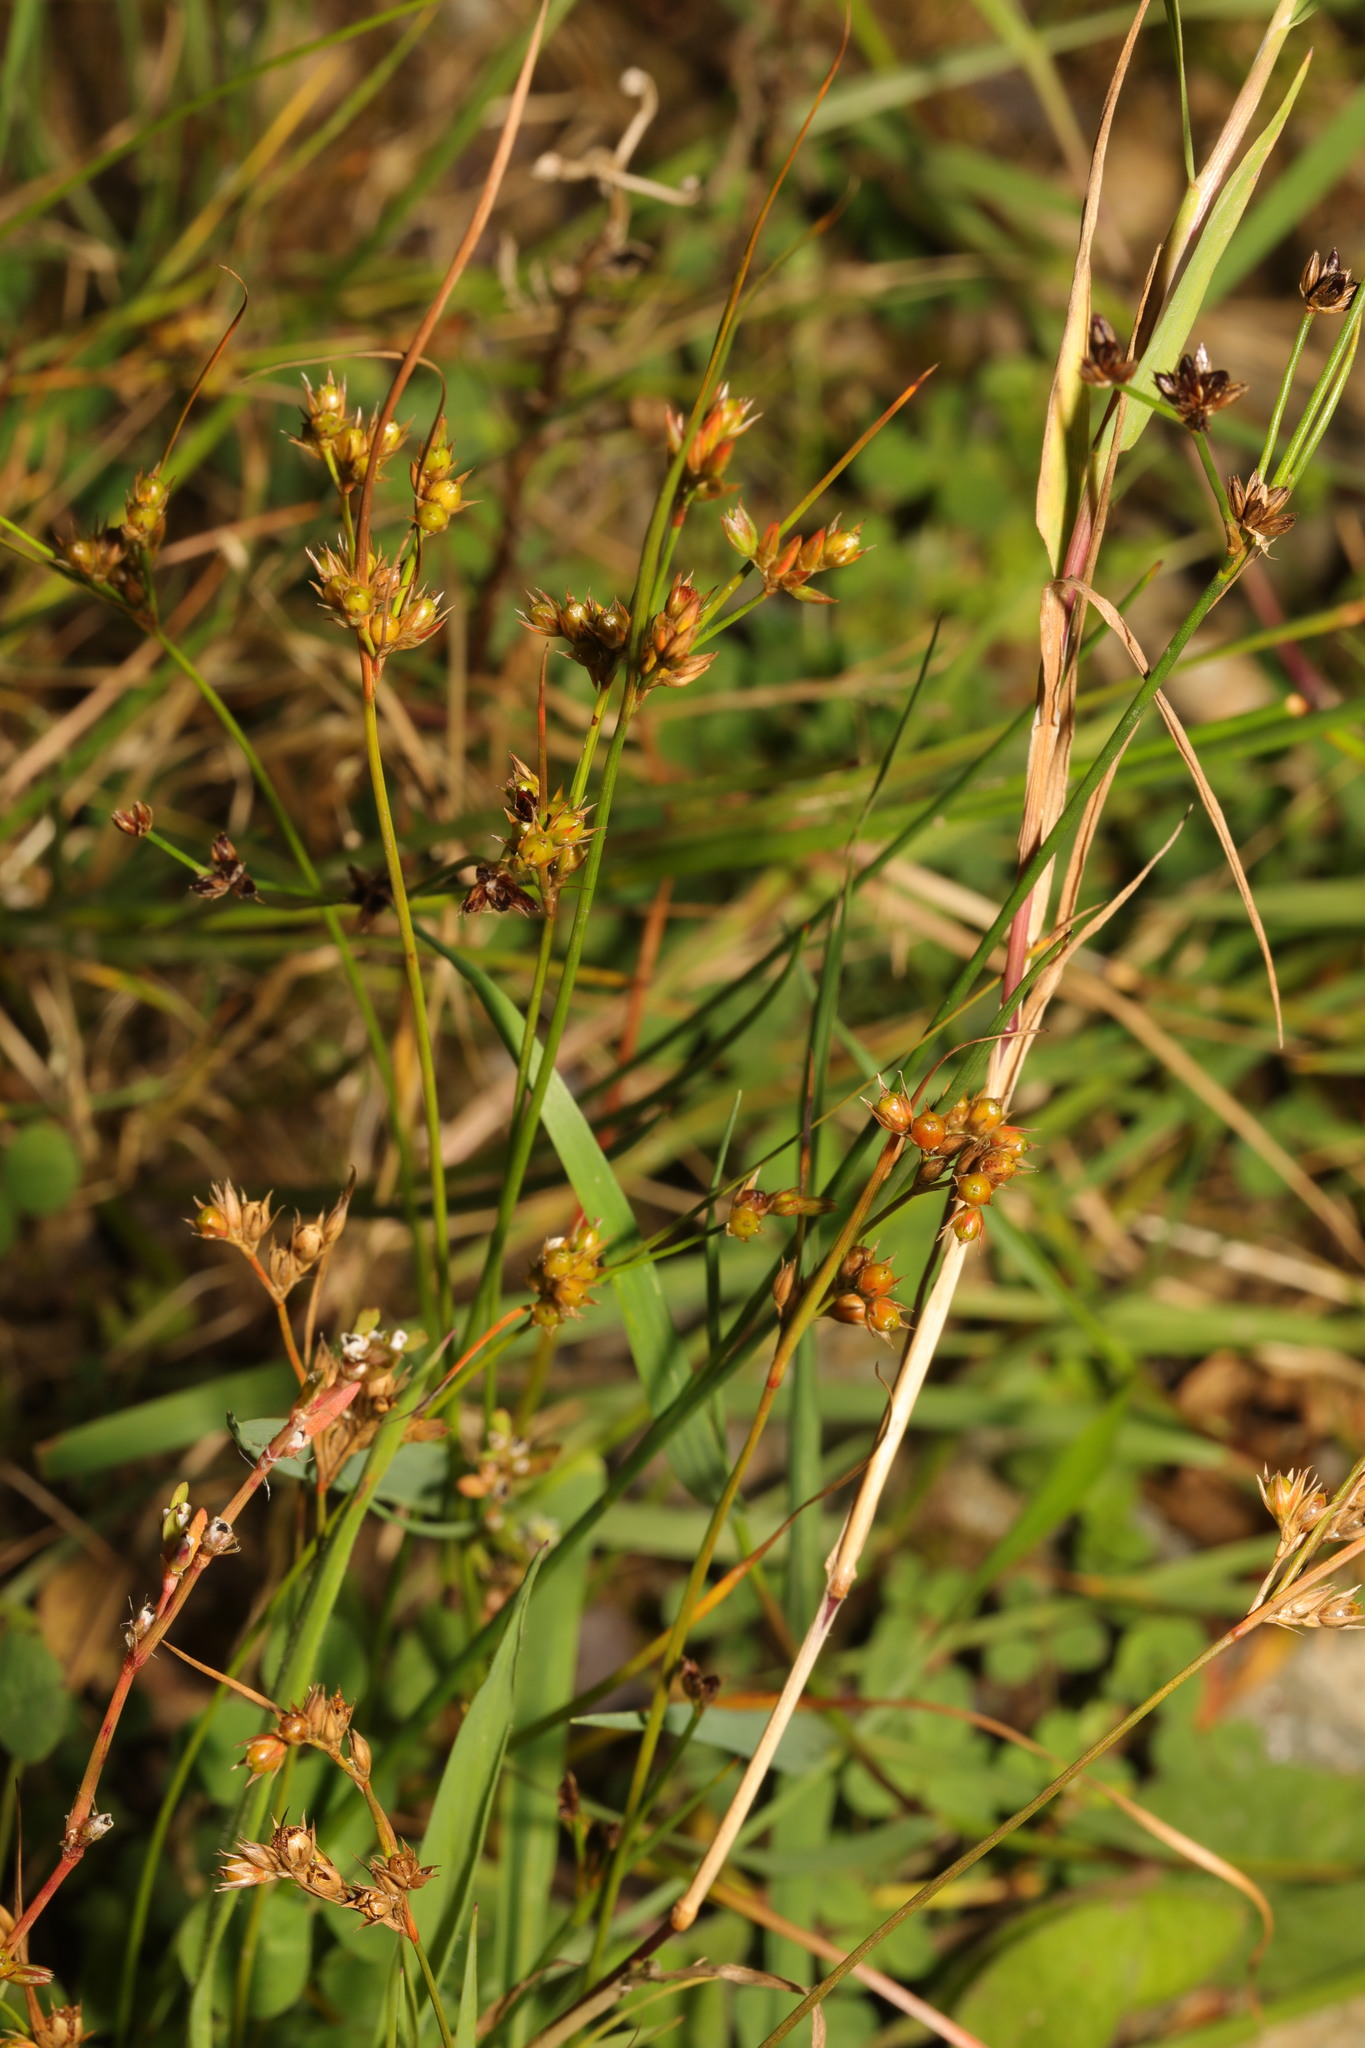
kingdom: Plantae
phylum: Tracheophyta
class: Liliopsida
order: Poales
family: Juncaceae
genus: Juncus
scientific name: Juncus tenuis
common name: Slender rush
